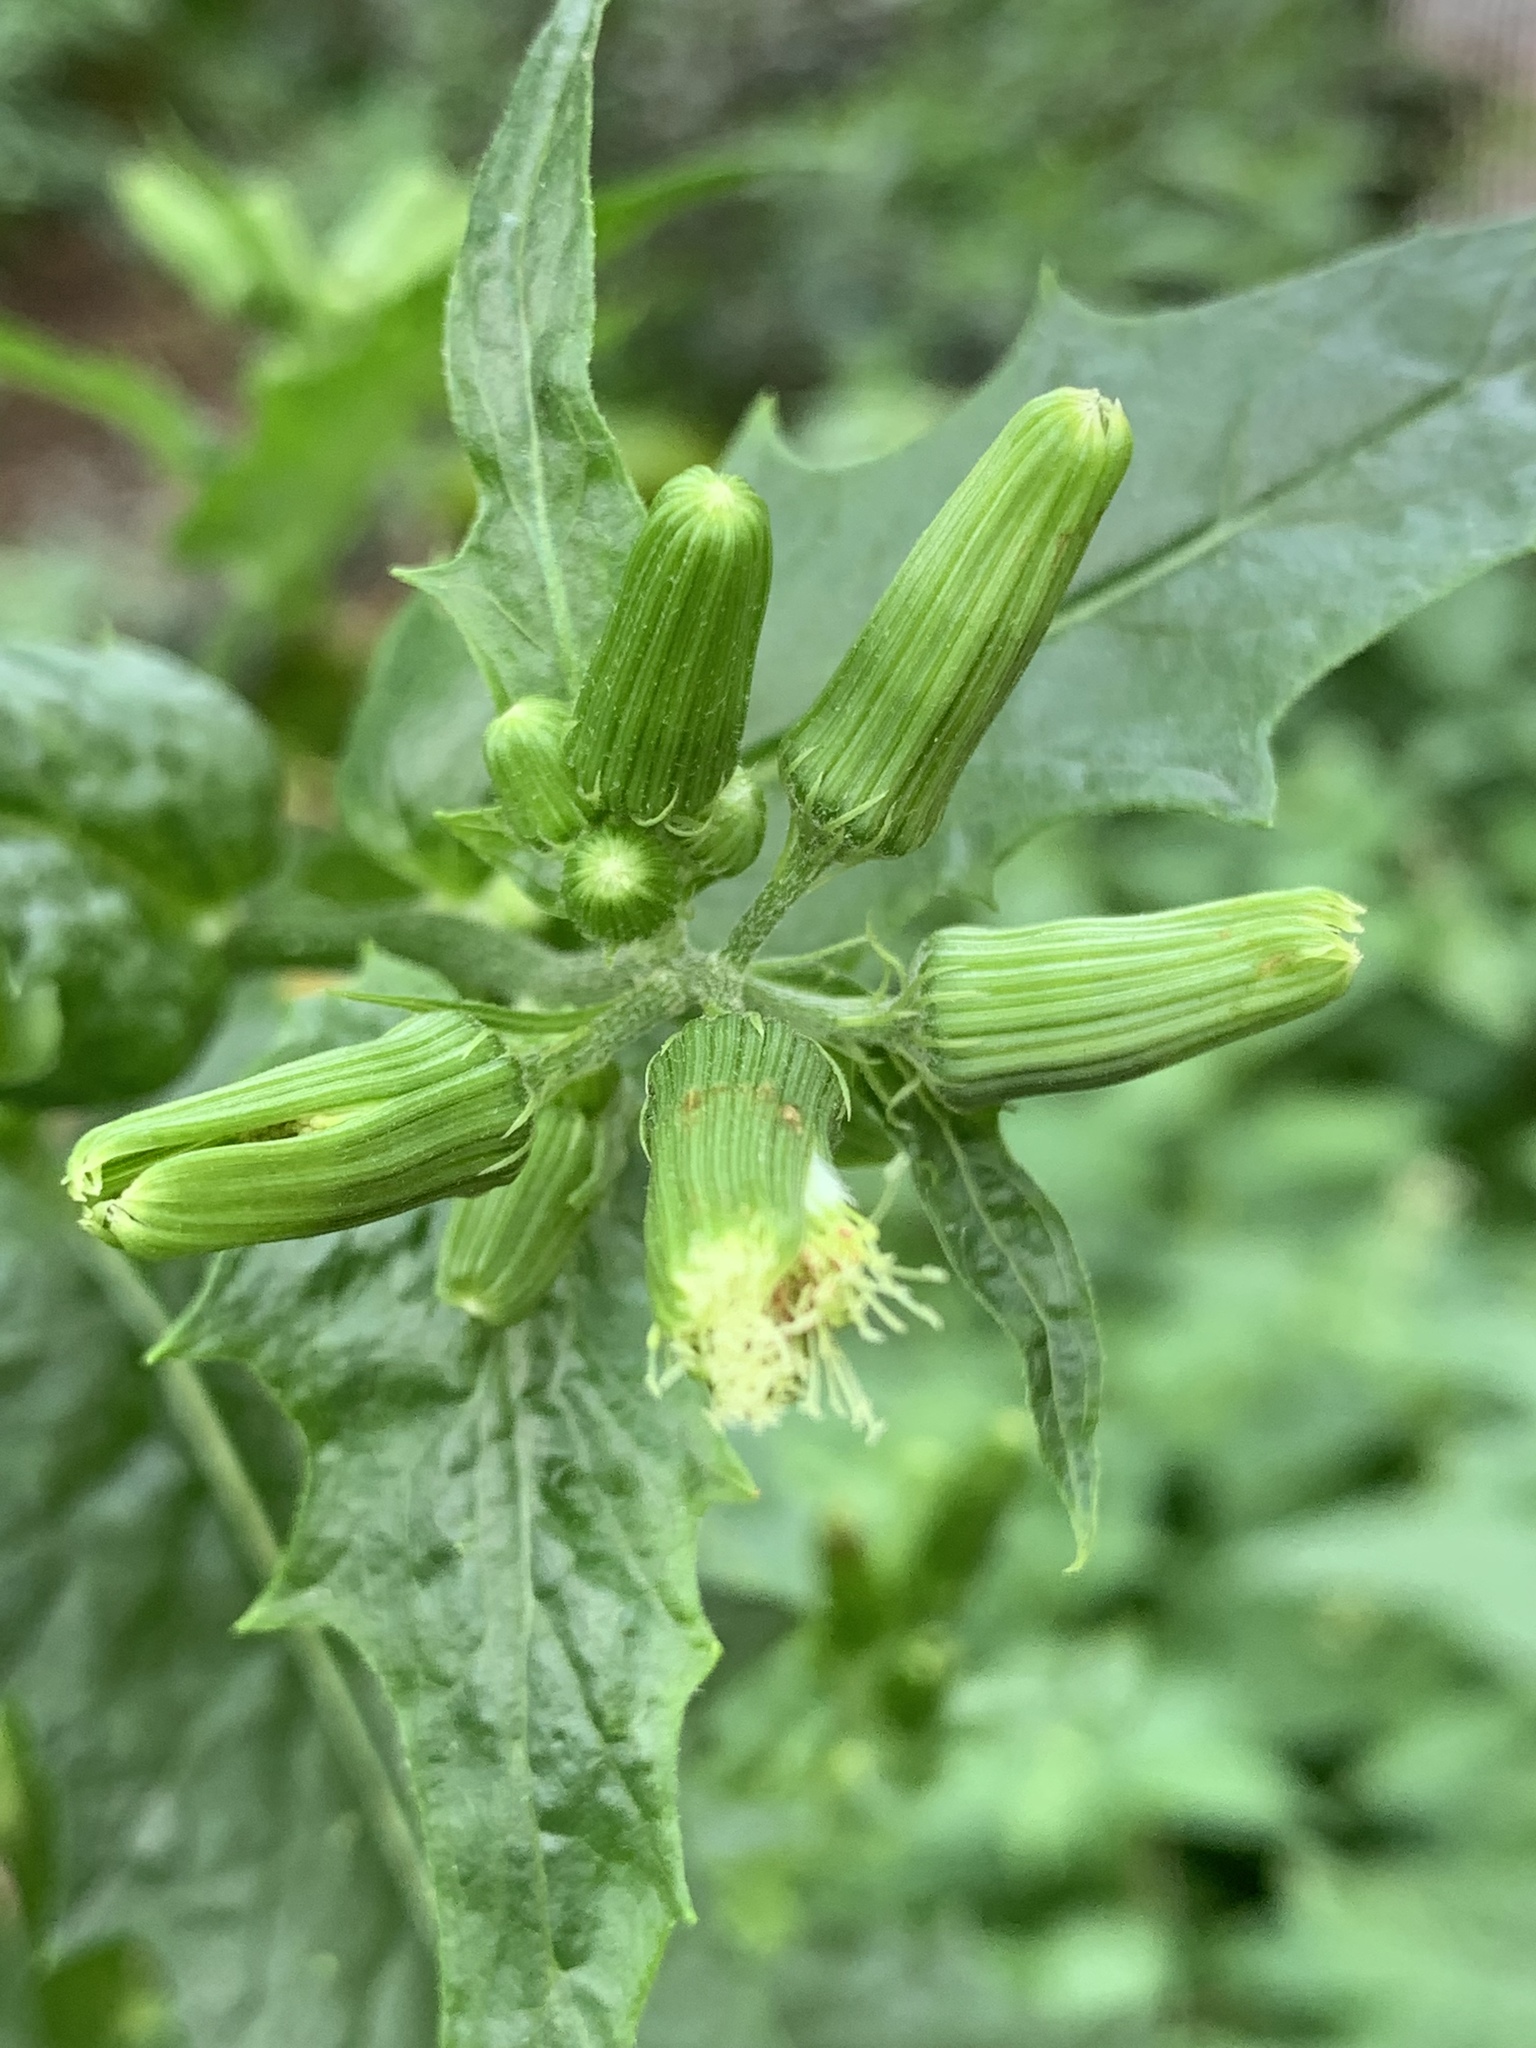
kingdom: Plantae
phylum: Tracheophyta
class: Magnoliopsida
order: Asterales
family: Asteraceae
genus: Erechtites
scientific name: Erechtites hieraciifolius
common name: American burnweed
